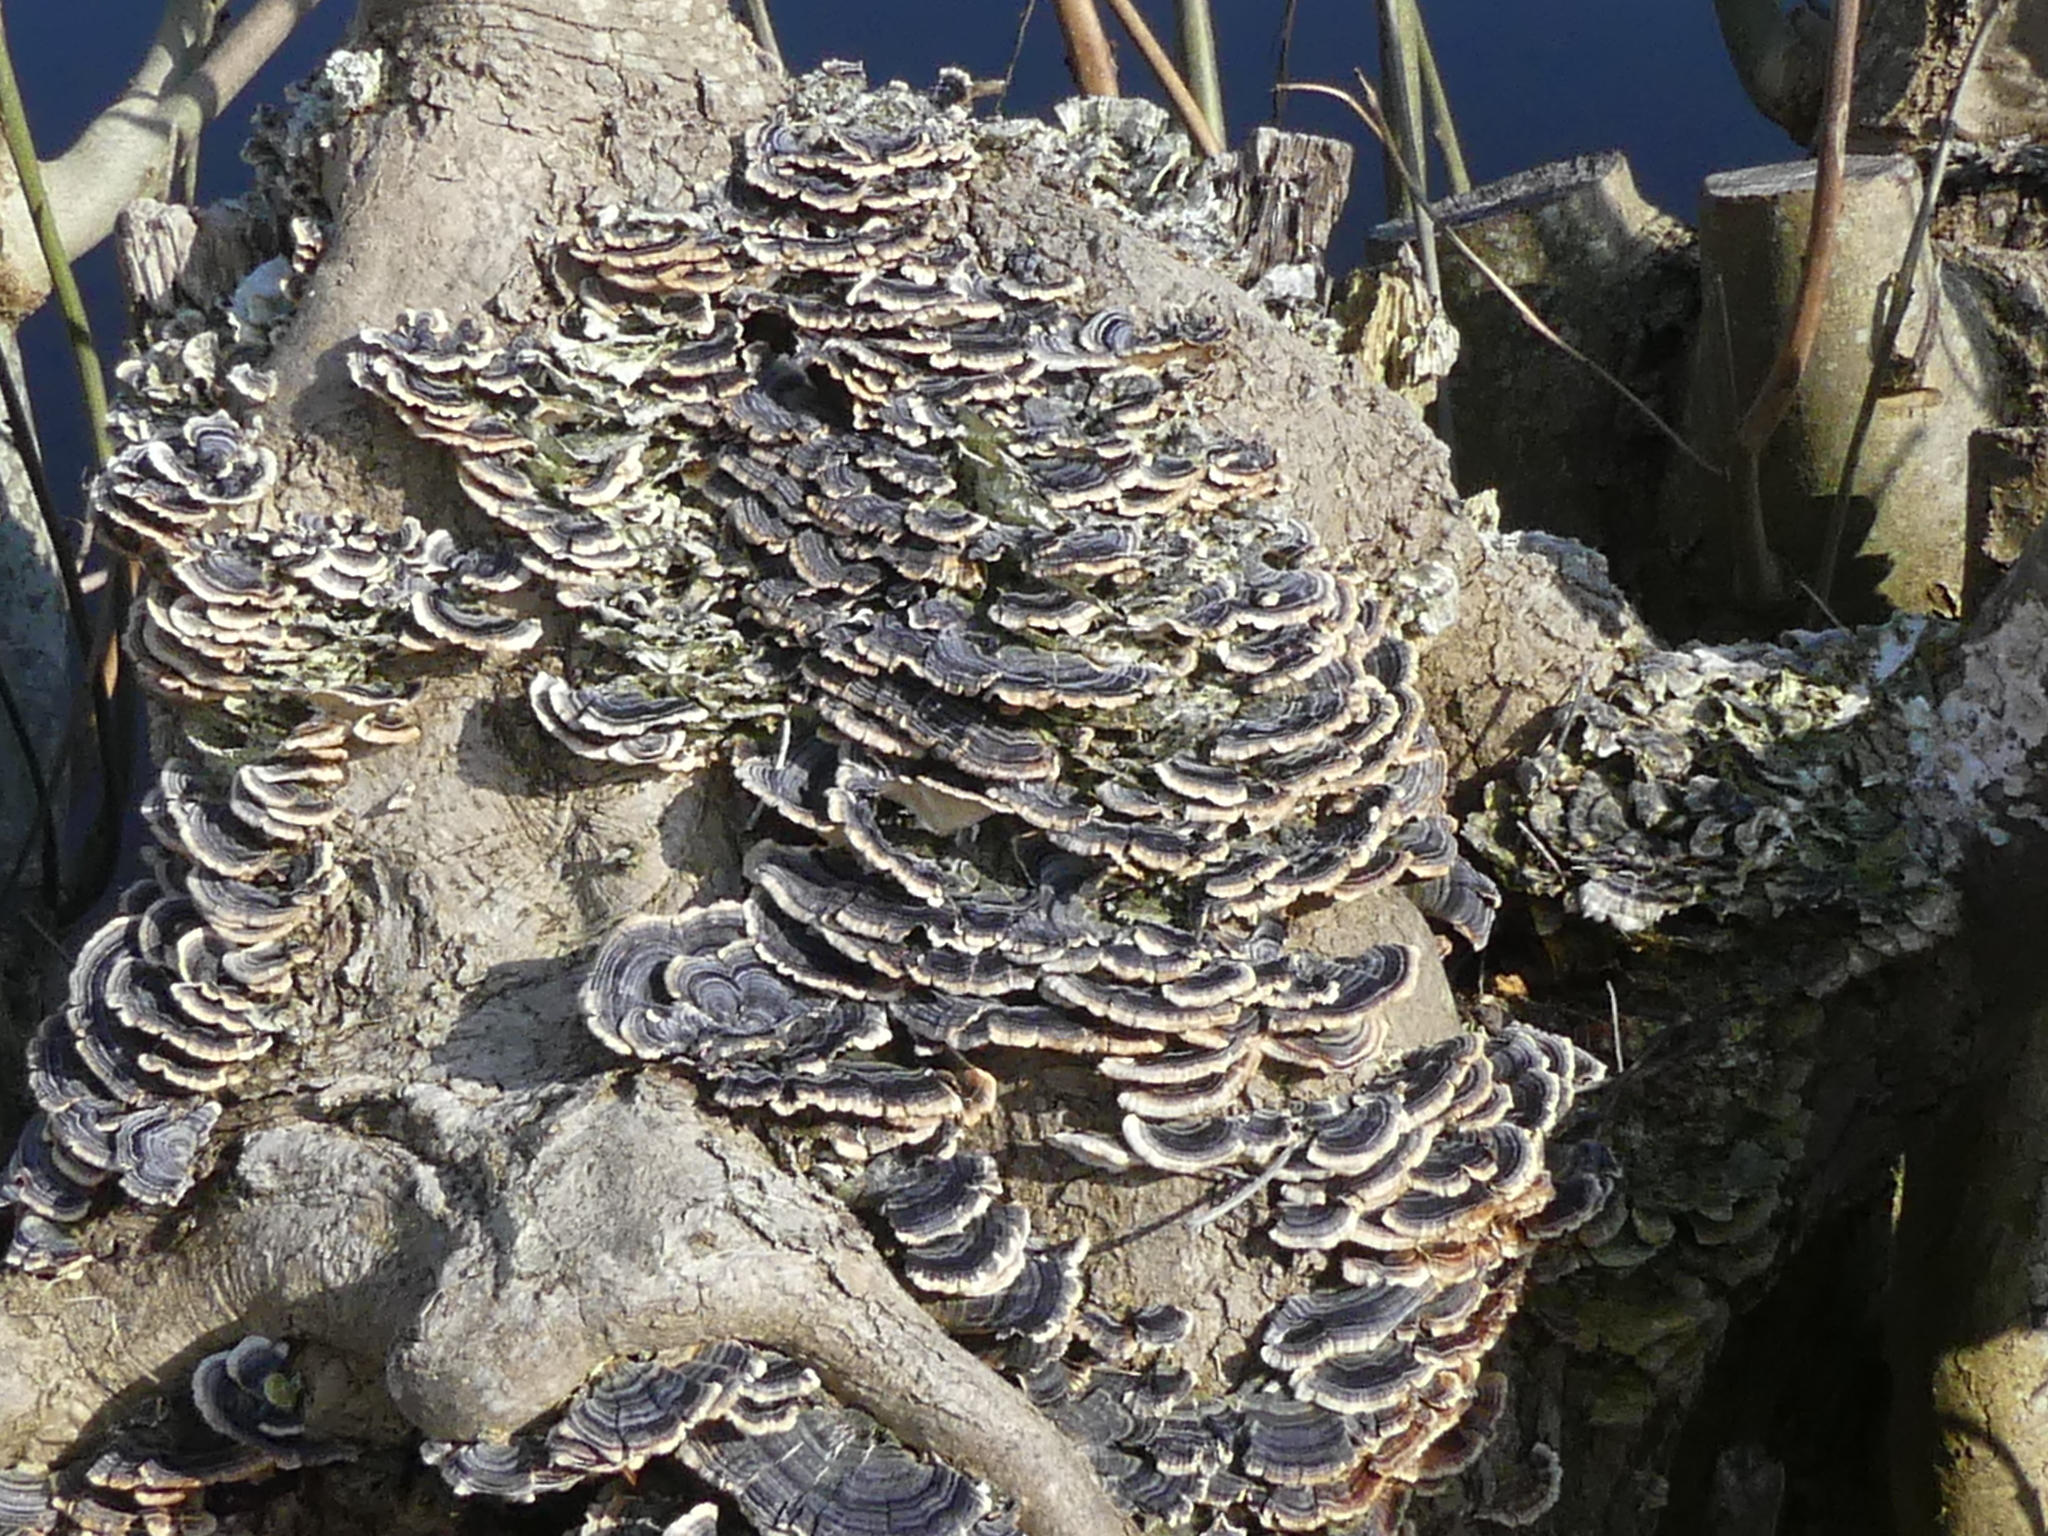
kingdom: Fungi
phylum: Basidiomycota
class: Agaricomycetes
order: Polyporales
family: Polyporaceae
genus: Trametes
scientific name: Trametes versicolor
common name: Turkeytail
